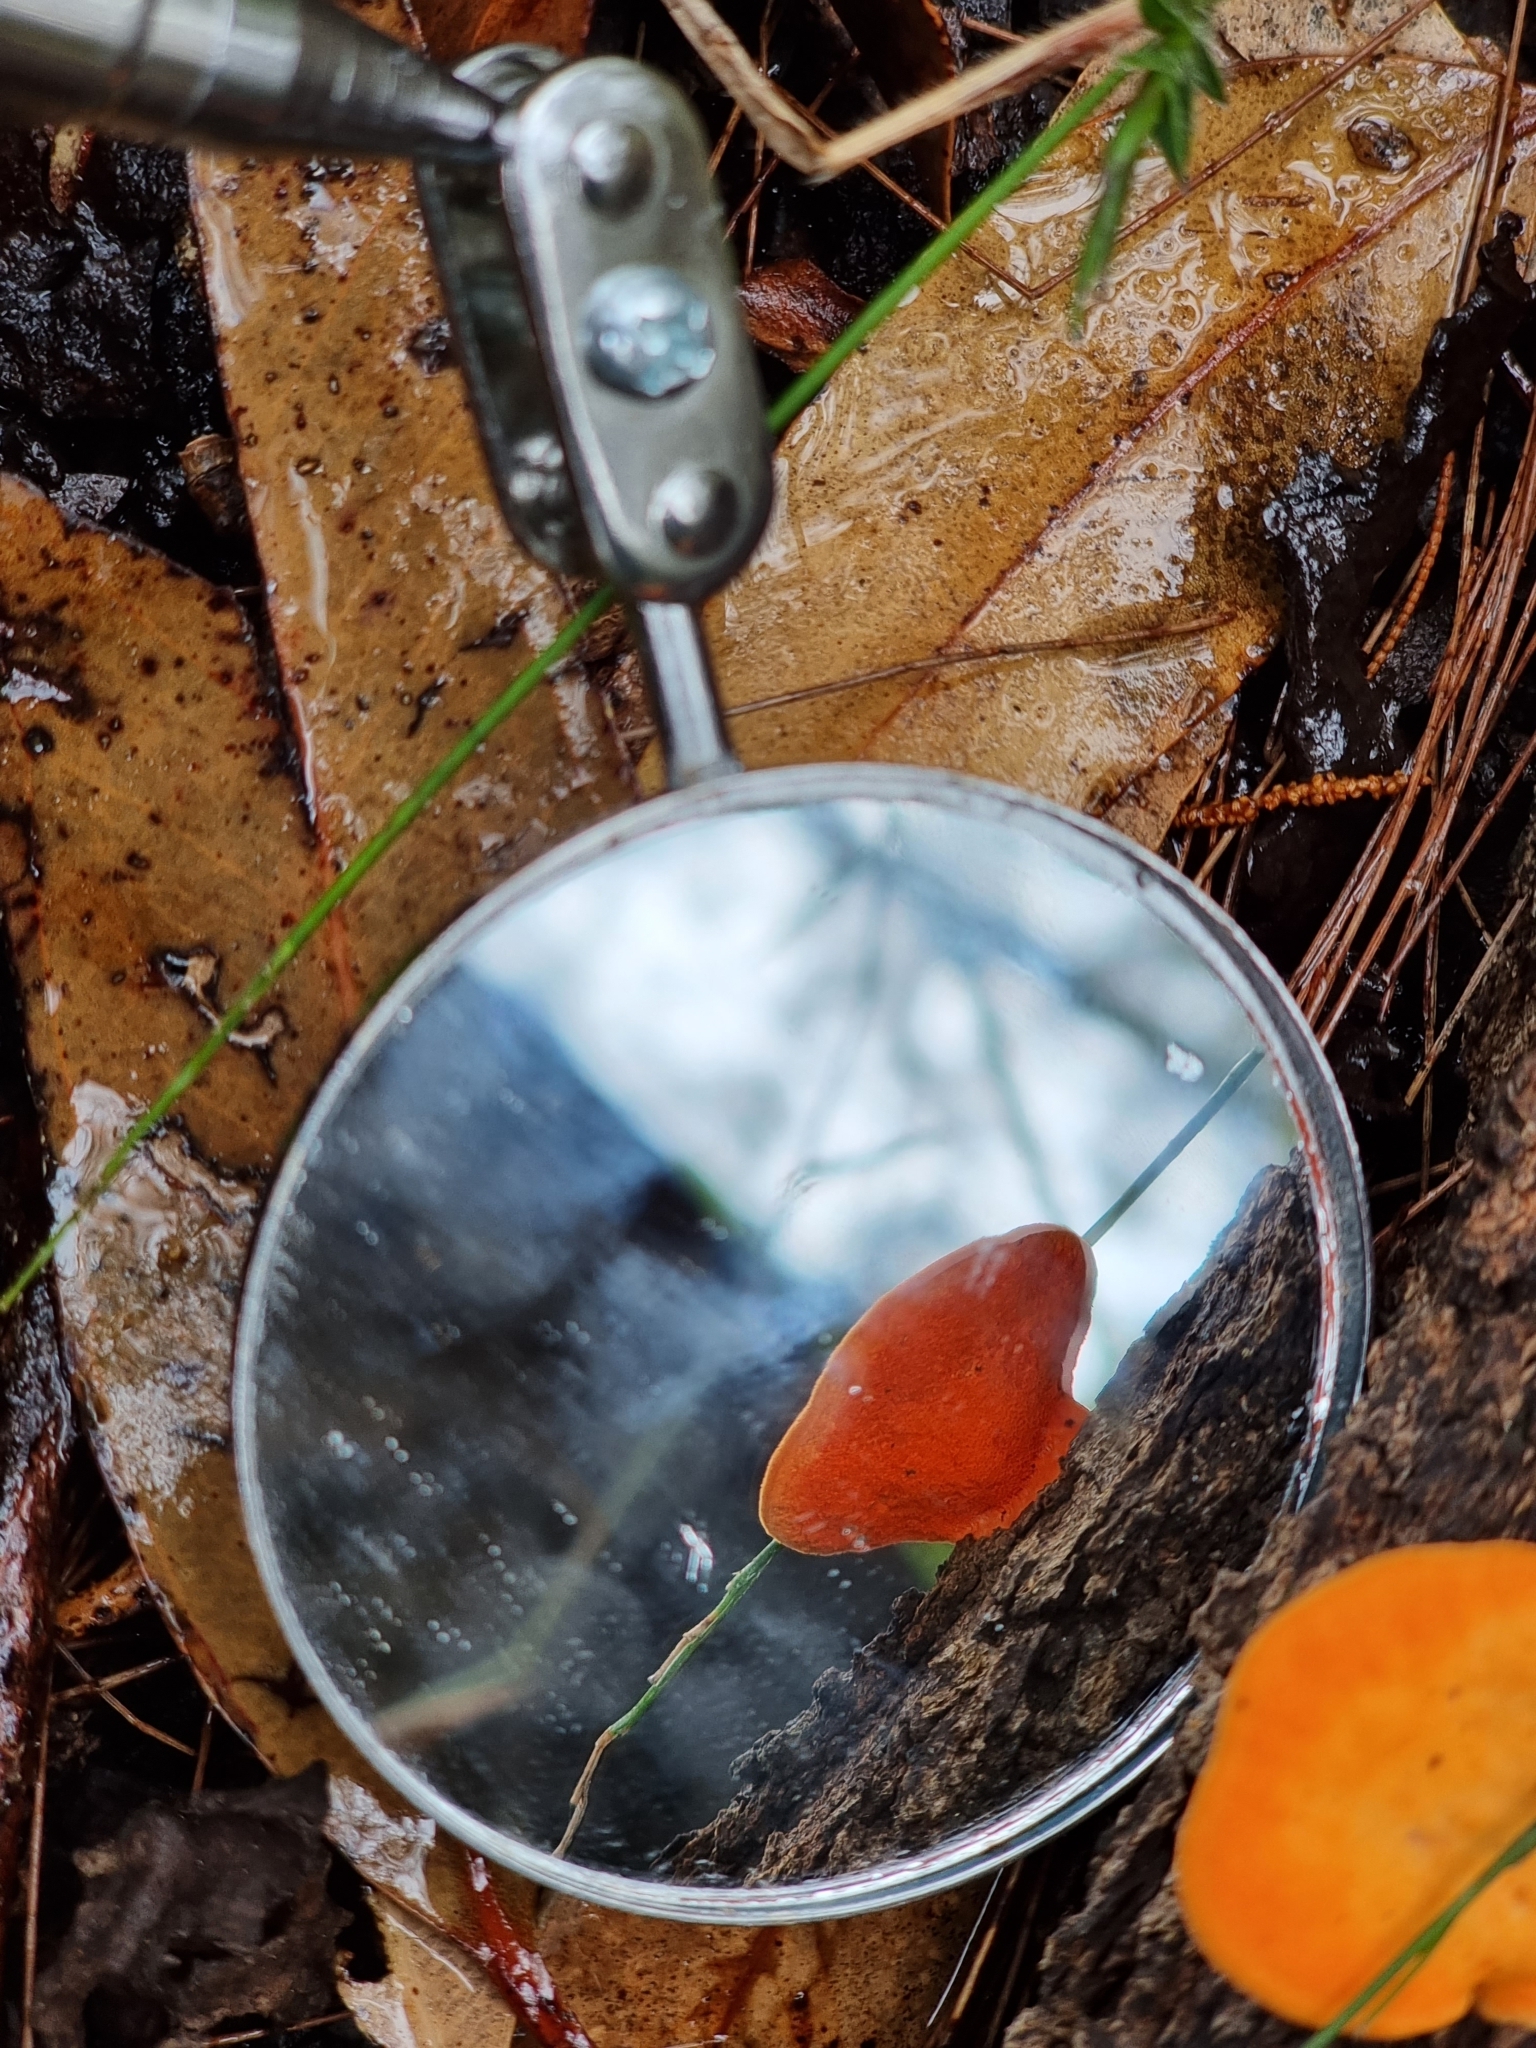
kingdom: Fungi
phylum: Basidiomycota
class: Agaricomycetes
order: Polyporales
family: Polyporaceae
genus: Trametes
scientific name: Trametes coccinea
